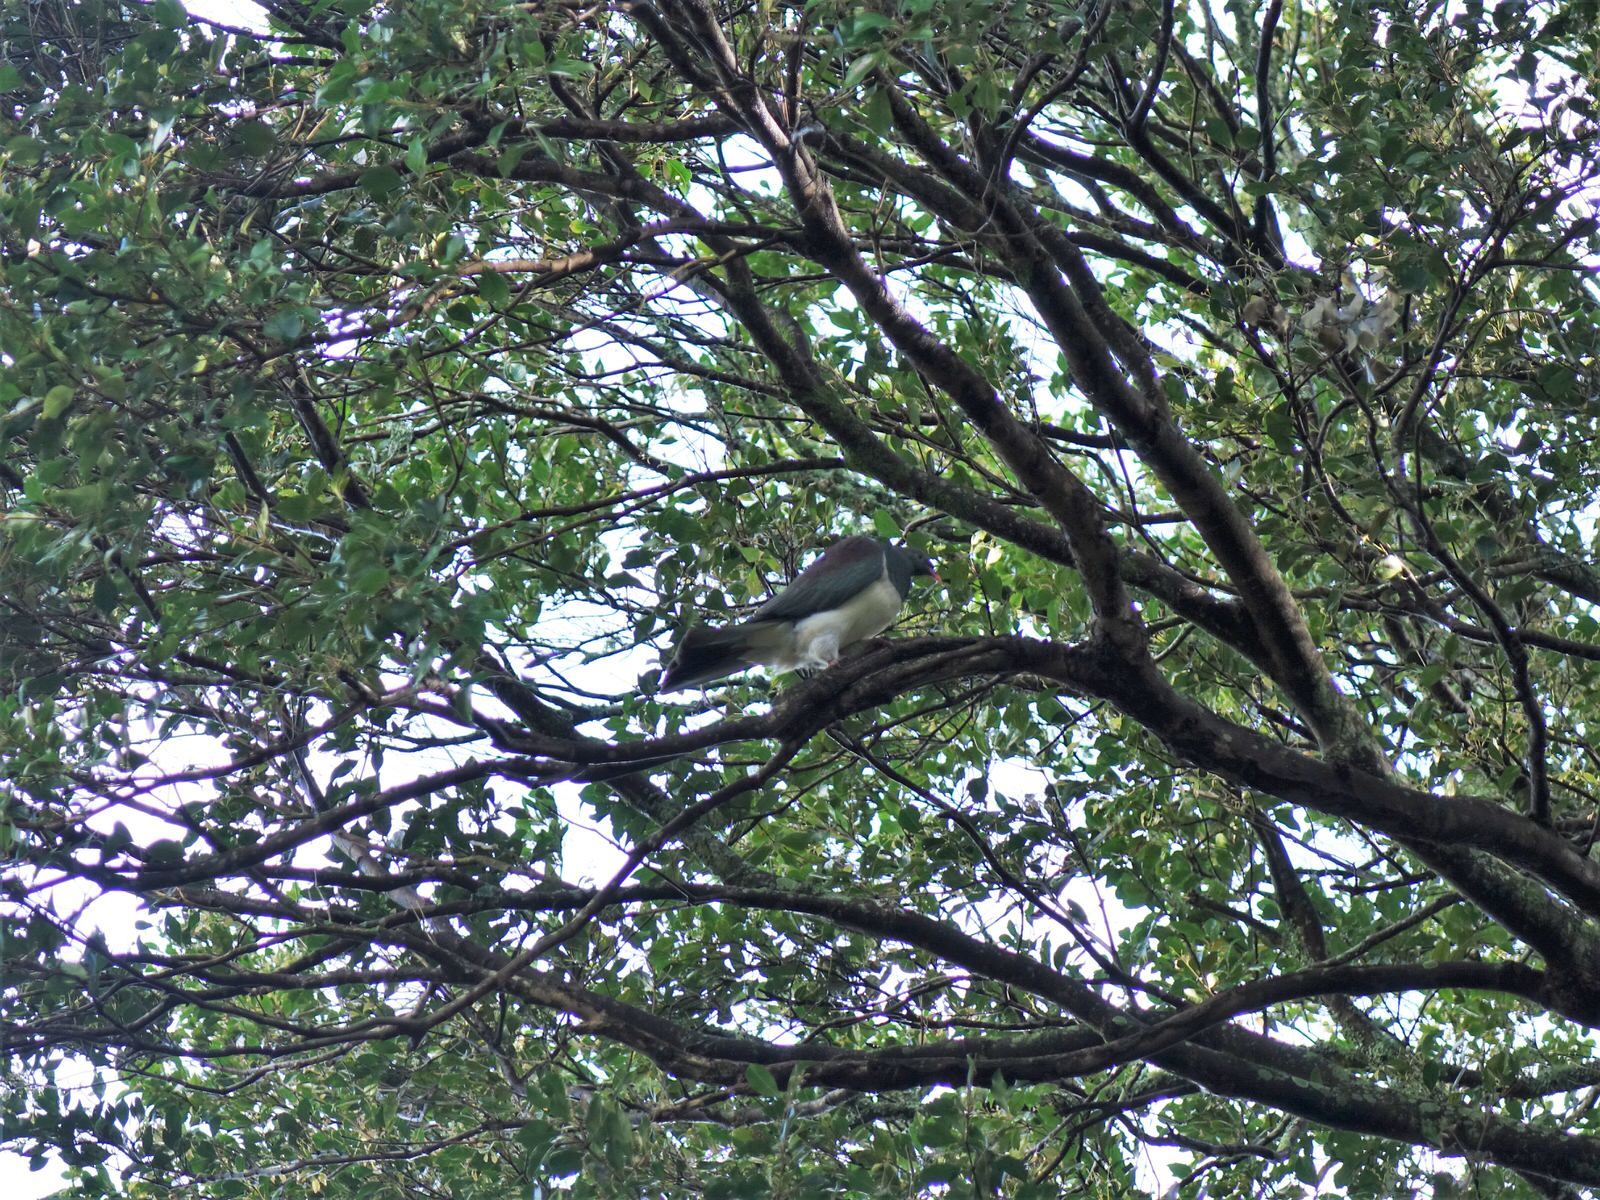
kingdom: Animalia
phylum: Chordata
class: Aves
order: Columbiformes
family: Columbidae
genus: Hemiphaga
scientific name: Hemiphaga novaeseelandiae
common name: New zealand pigeon
